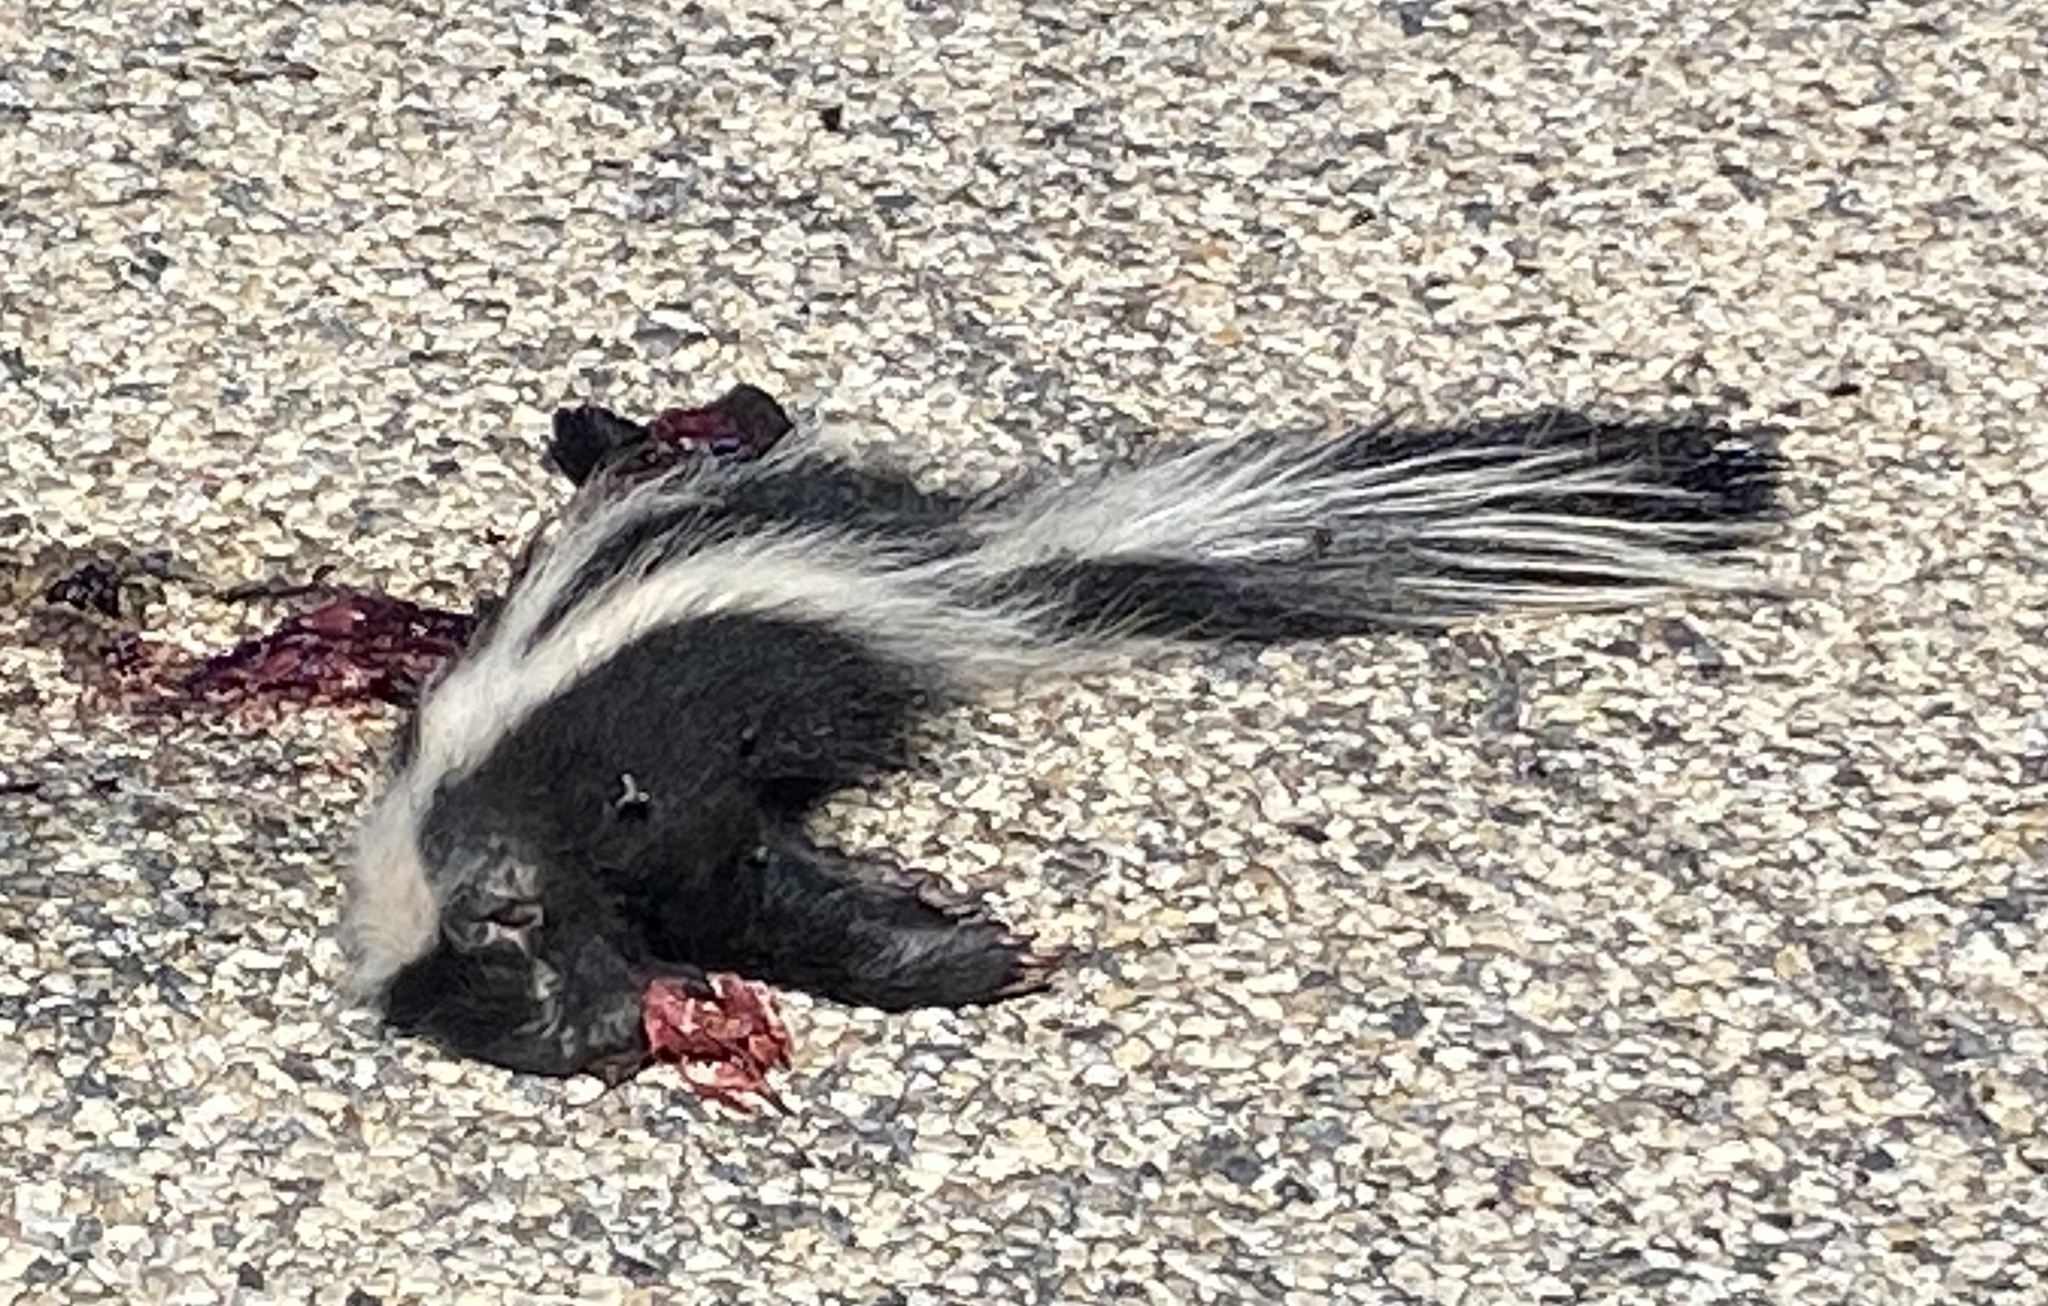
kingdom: Animalia
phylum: Chordata
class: Mammalia
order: Carnivora
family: Mephitidae
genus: Mephitis
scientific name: Mephitis mephitis
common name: Striped skunk
